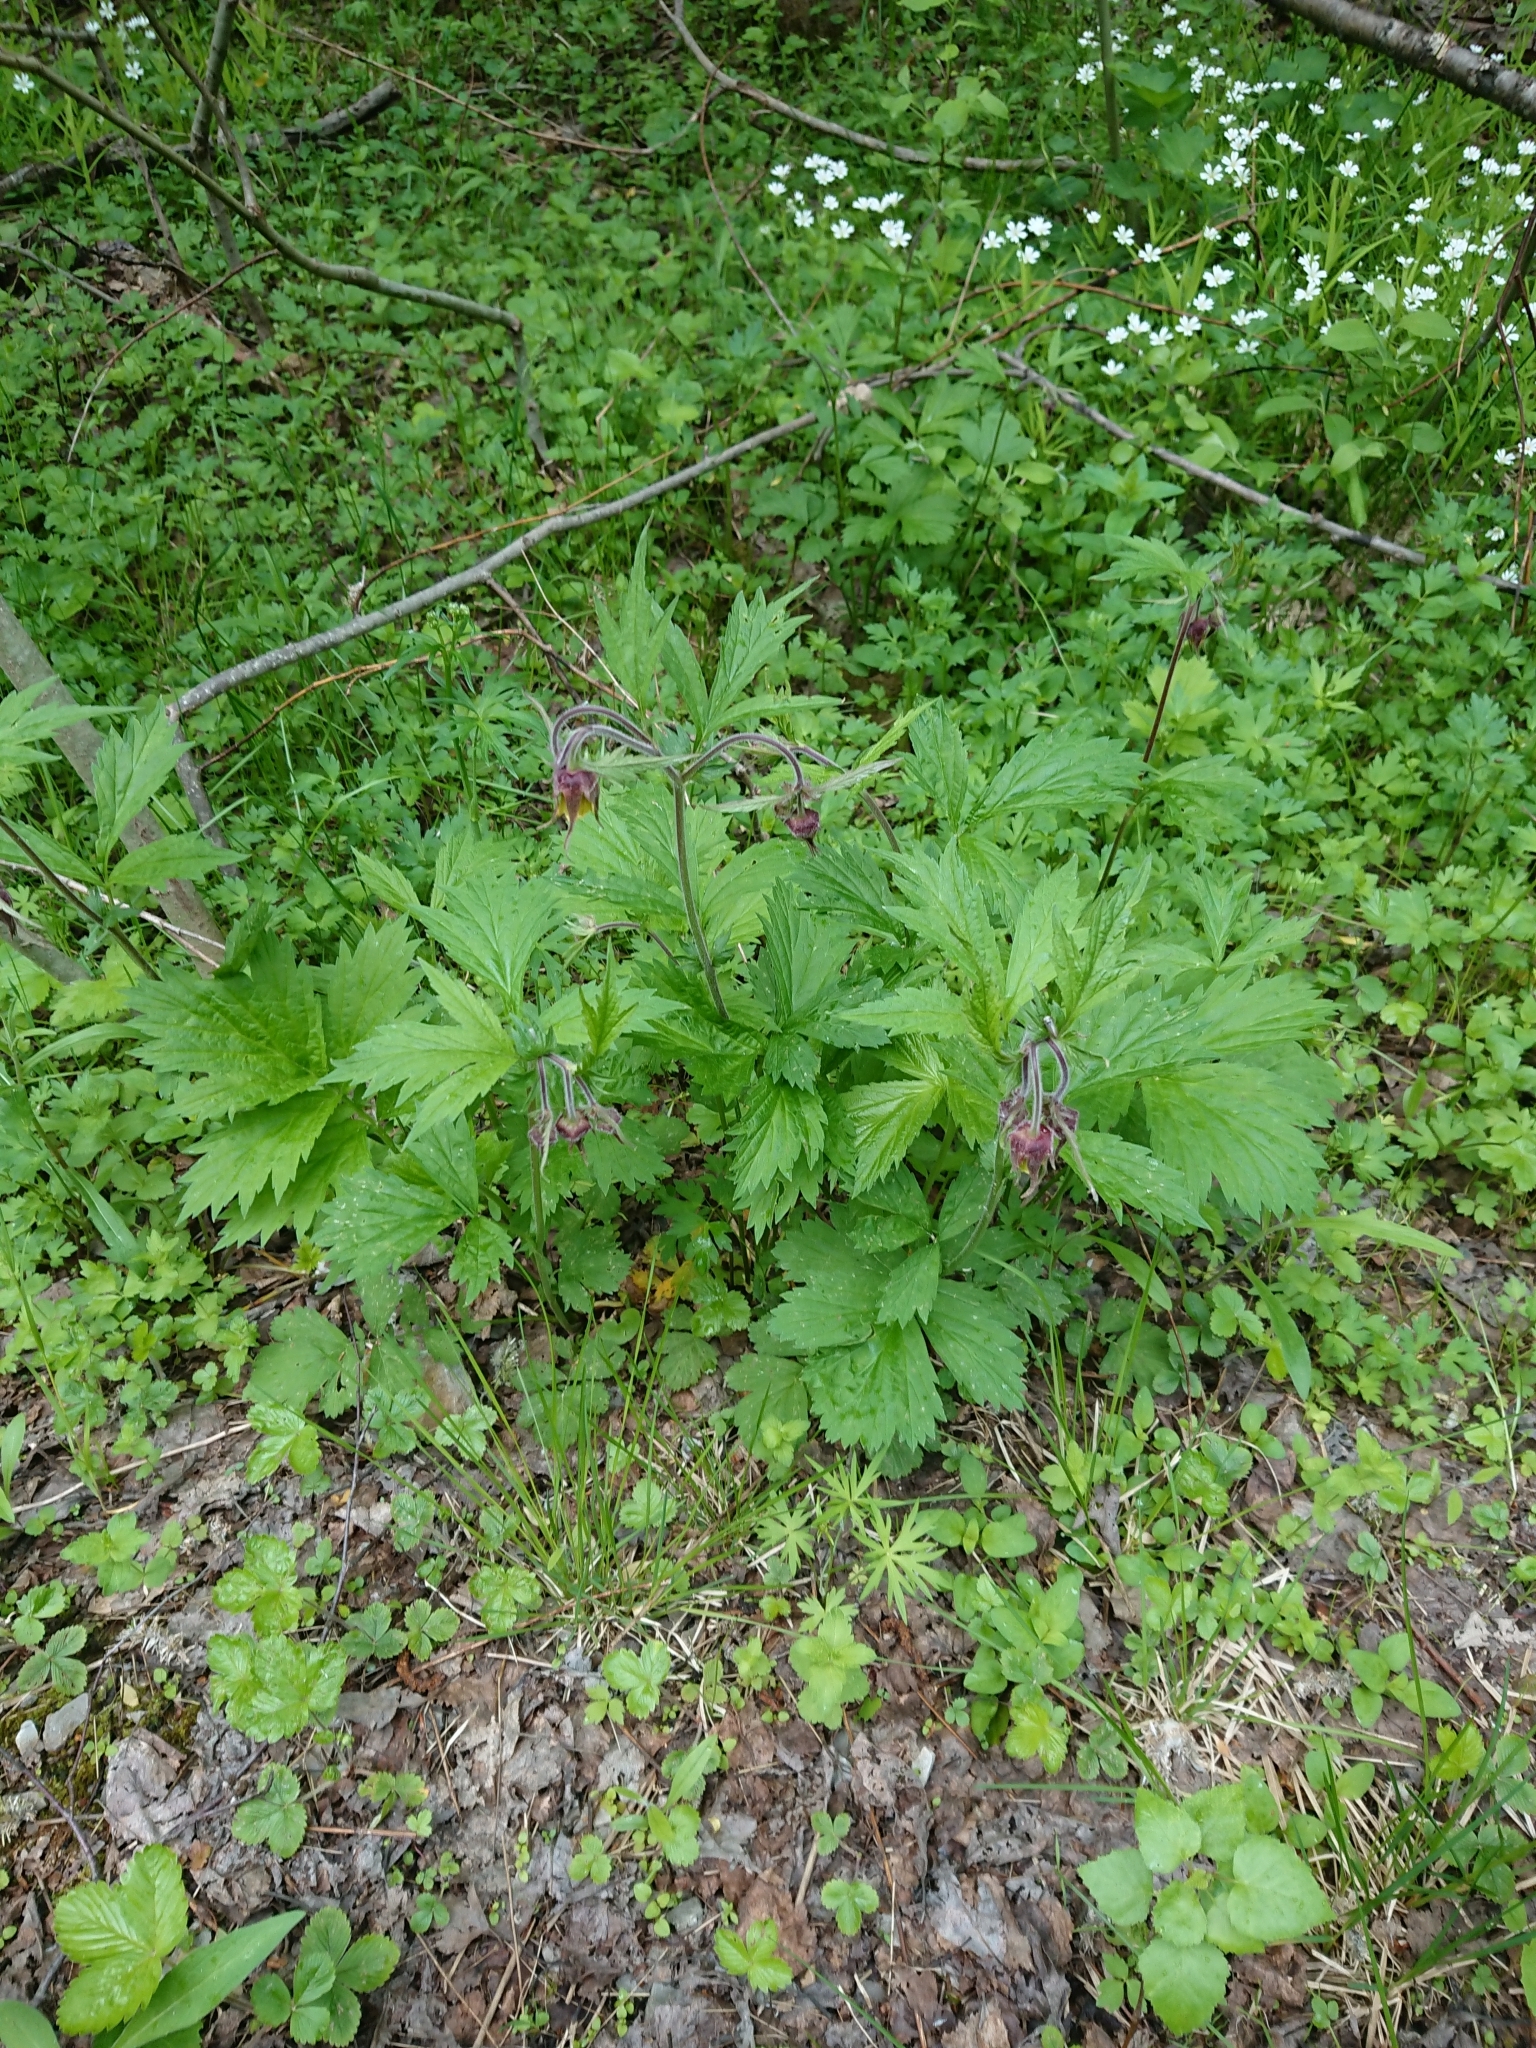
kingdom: Plantae
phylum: Tracheophyta
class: Magnoliopsida
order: Rosales
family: Rosaceae
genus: Geum
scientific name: Geum rivale
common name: Water avens
